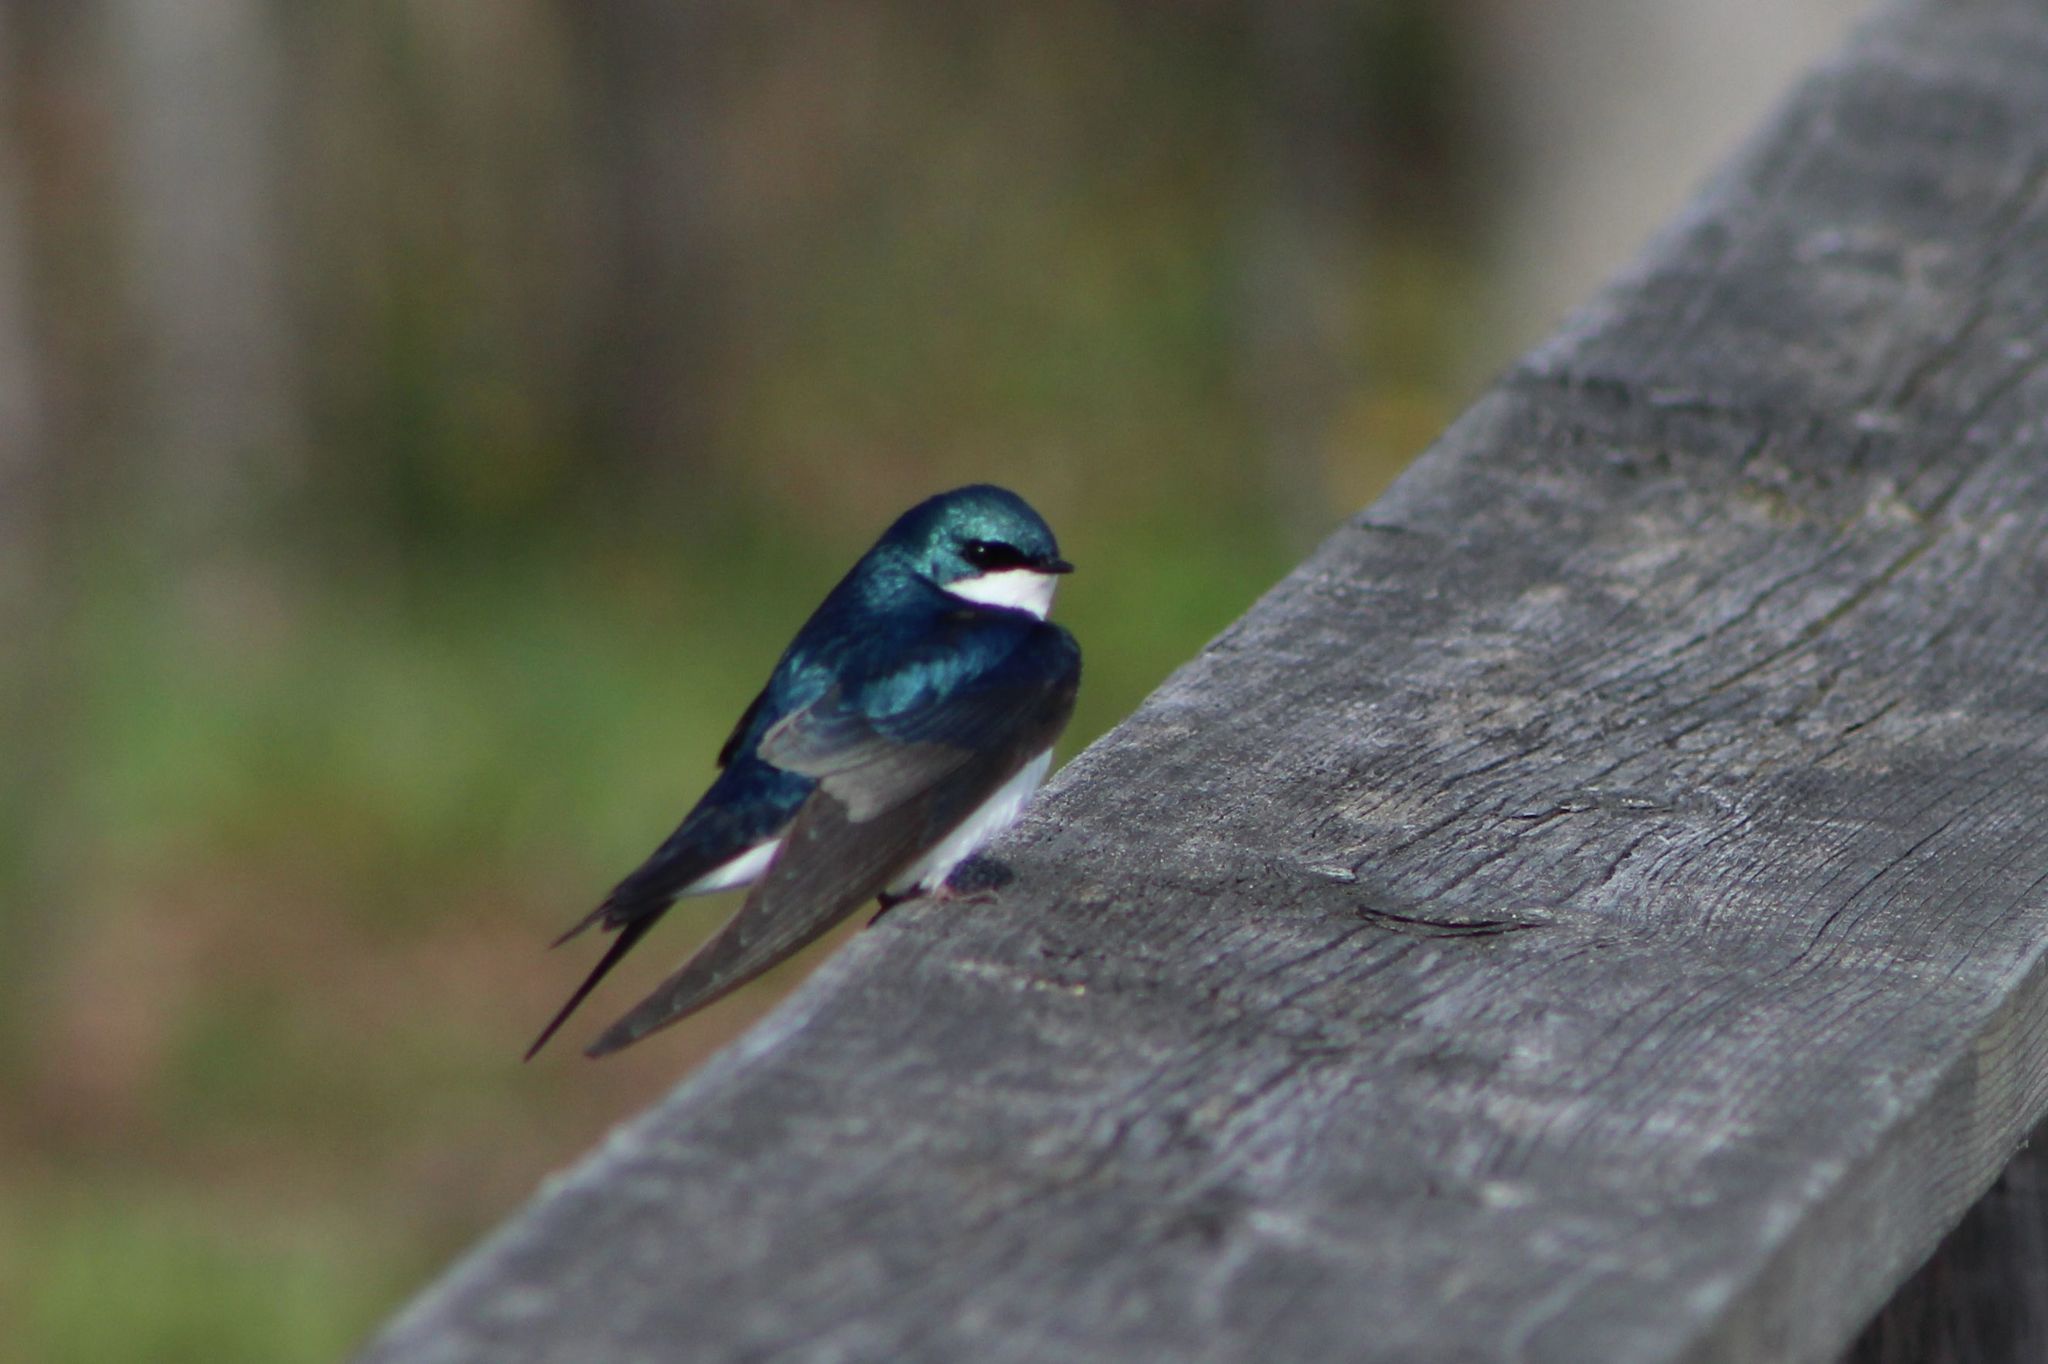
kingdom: Animalia
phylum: Chordata
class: Aves
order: Passeriformes
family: Hirundinidae
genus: Tachycineta
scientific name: Tachycineta bicolor
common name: Tree swallow
